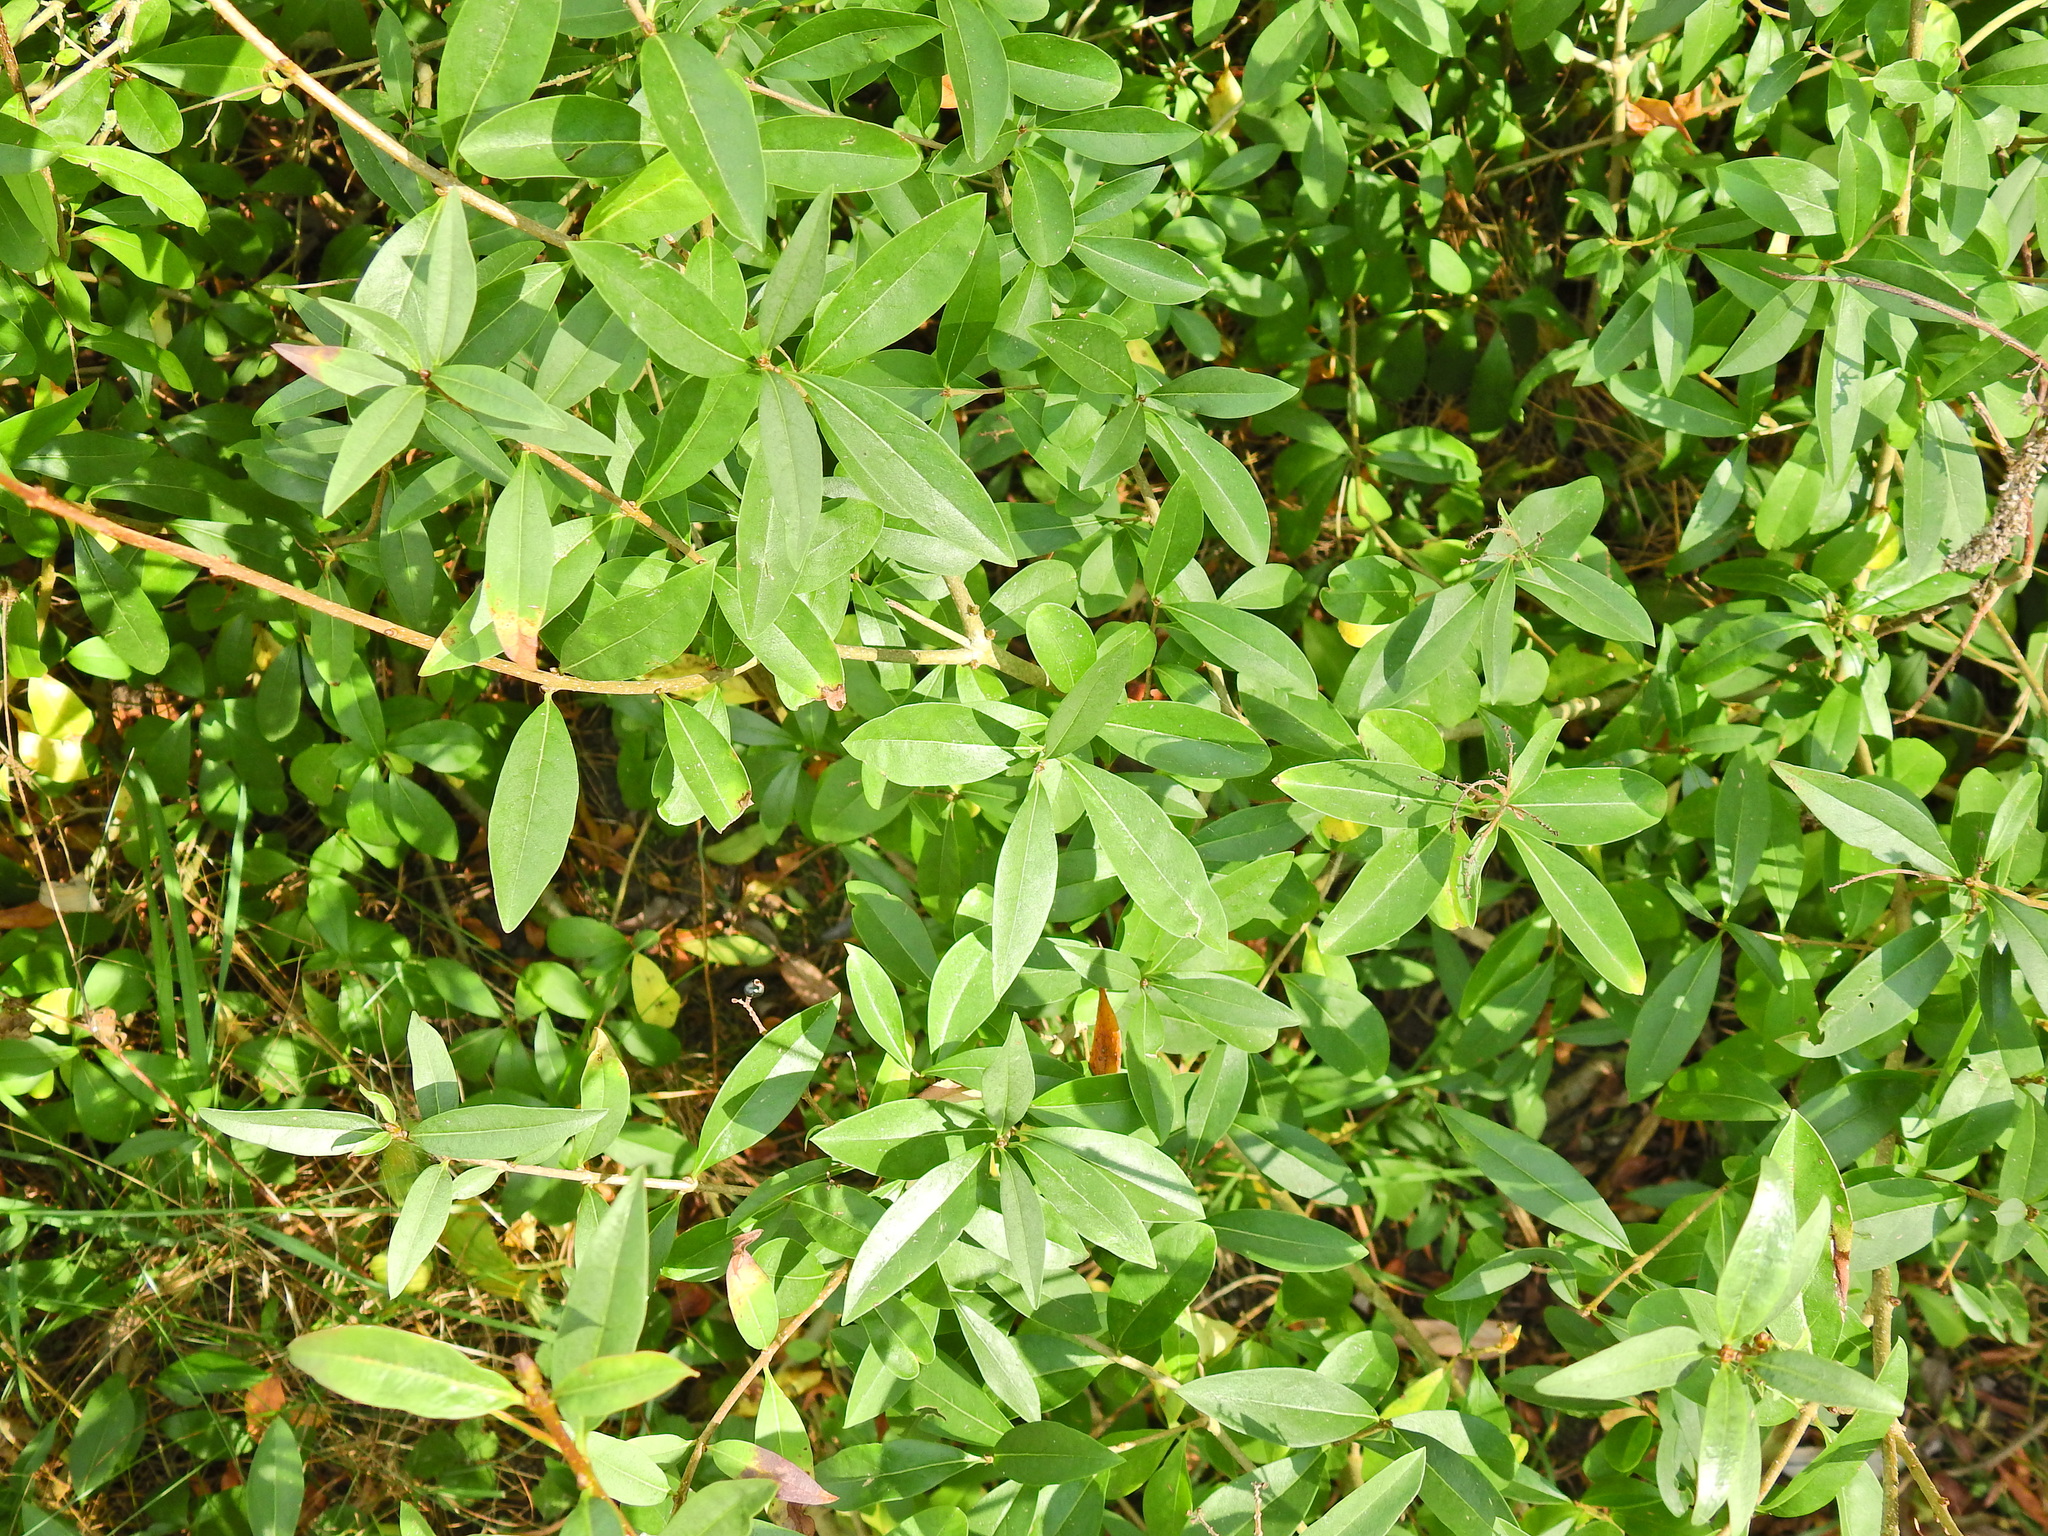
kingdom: Plantae
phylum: Tracheophyta
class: Magnoliopsida
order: Lamiales
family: Oleaceae
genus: Ligustrum
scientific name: Ligustrum vulgare
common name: Wild privet
